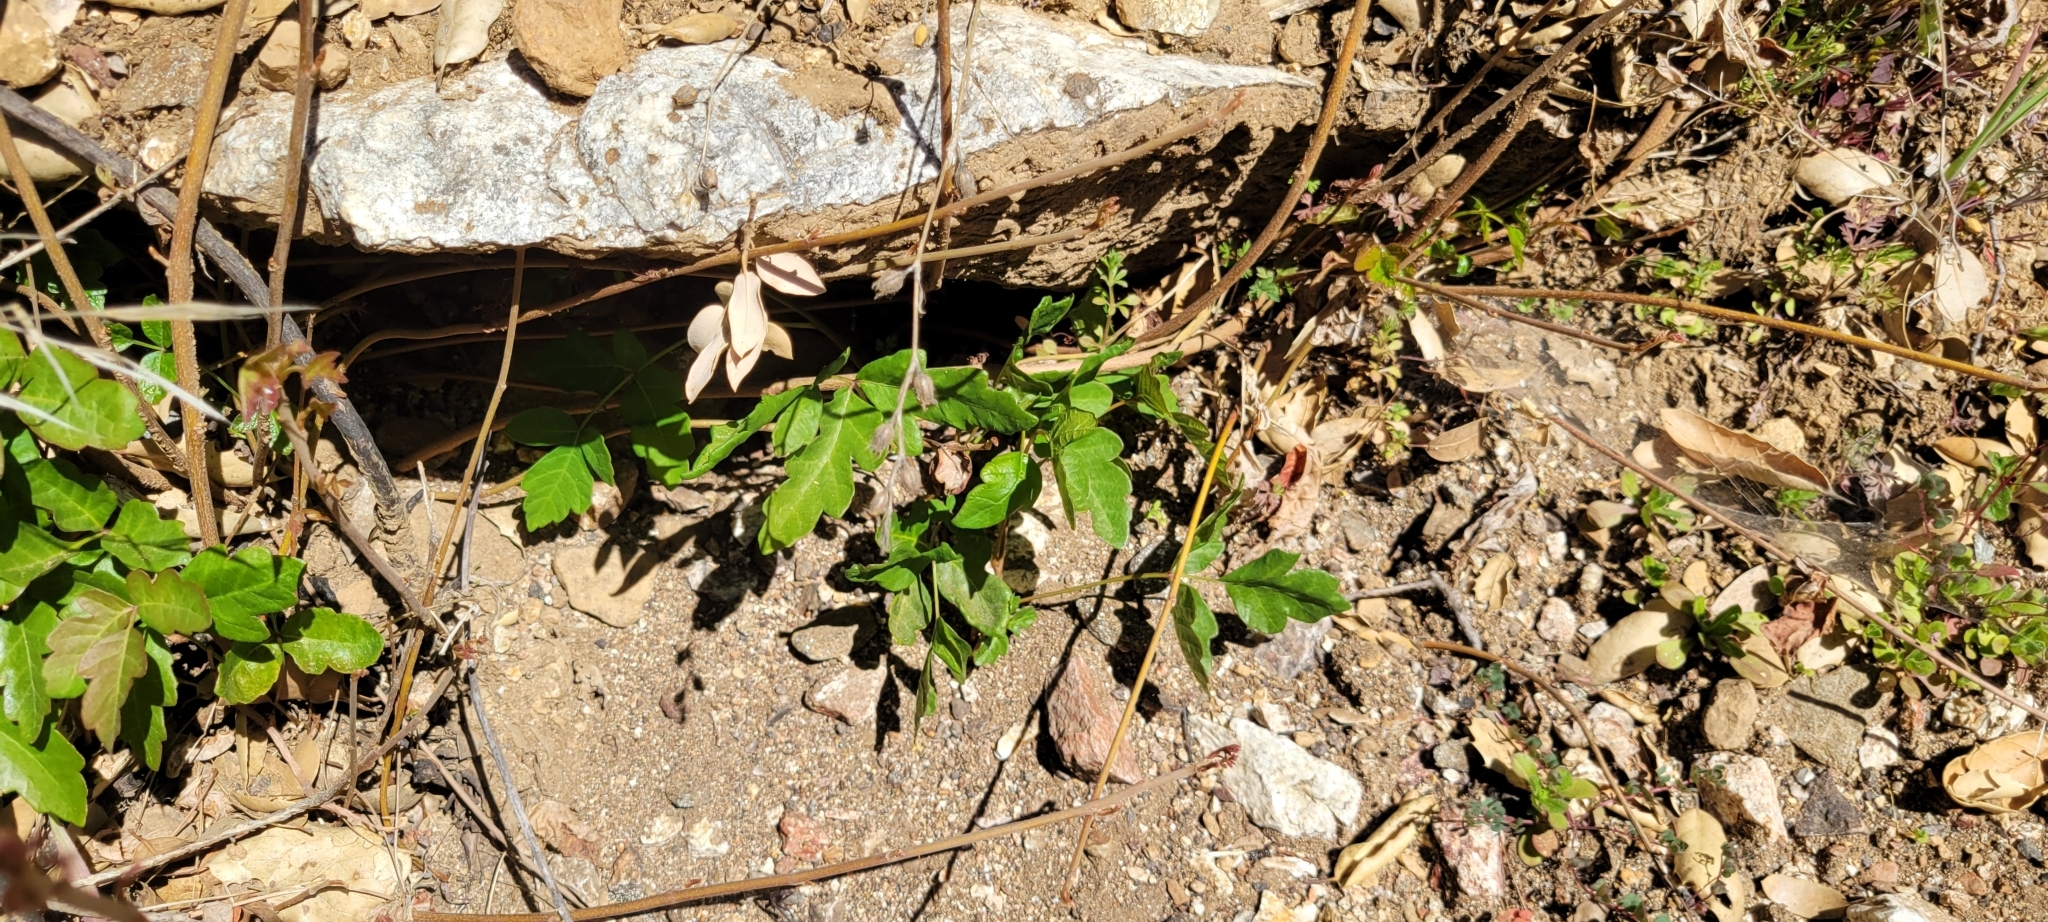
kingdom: Plantae
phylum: Tracheophyta
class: Magnoliopsida
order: Sapindales
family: Anacardiaceae
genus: Toxicodendron
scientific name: Toxicodendron diversilobum
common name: Pacific poison-oak
